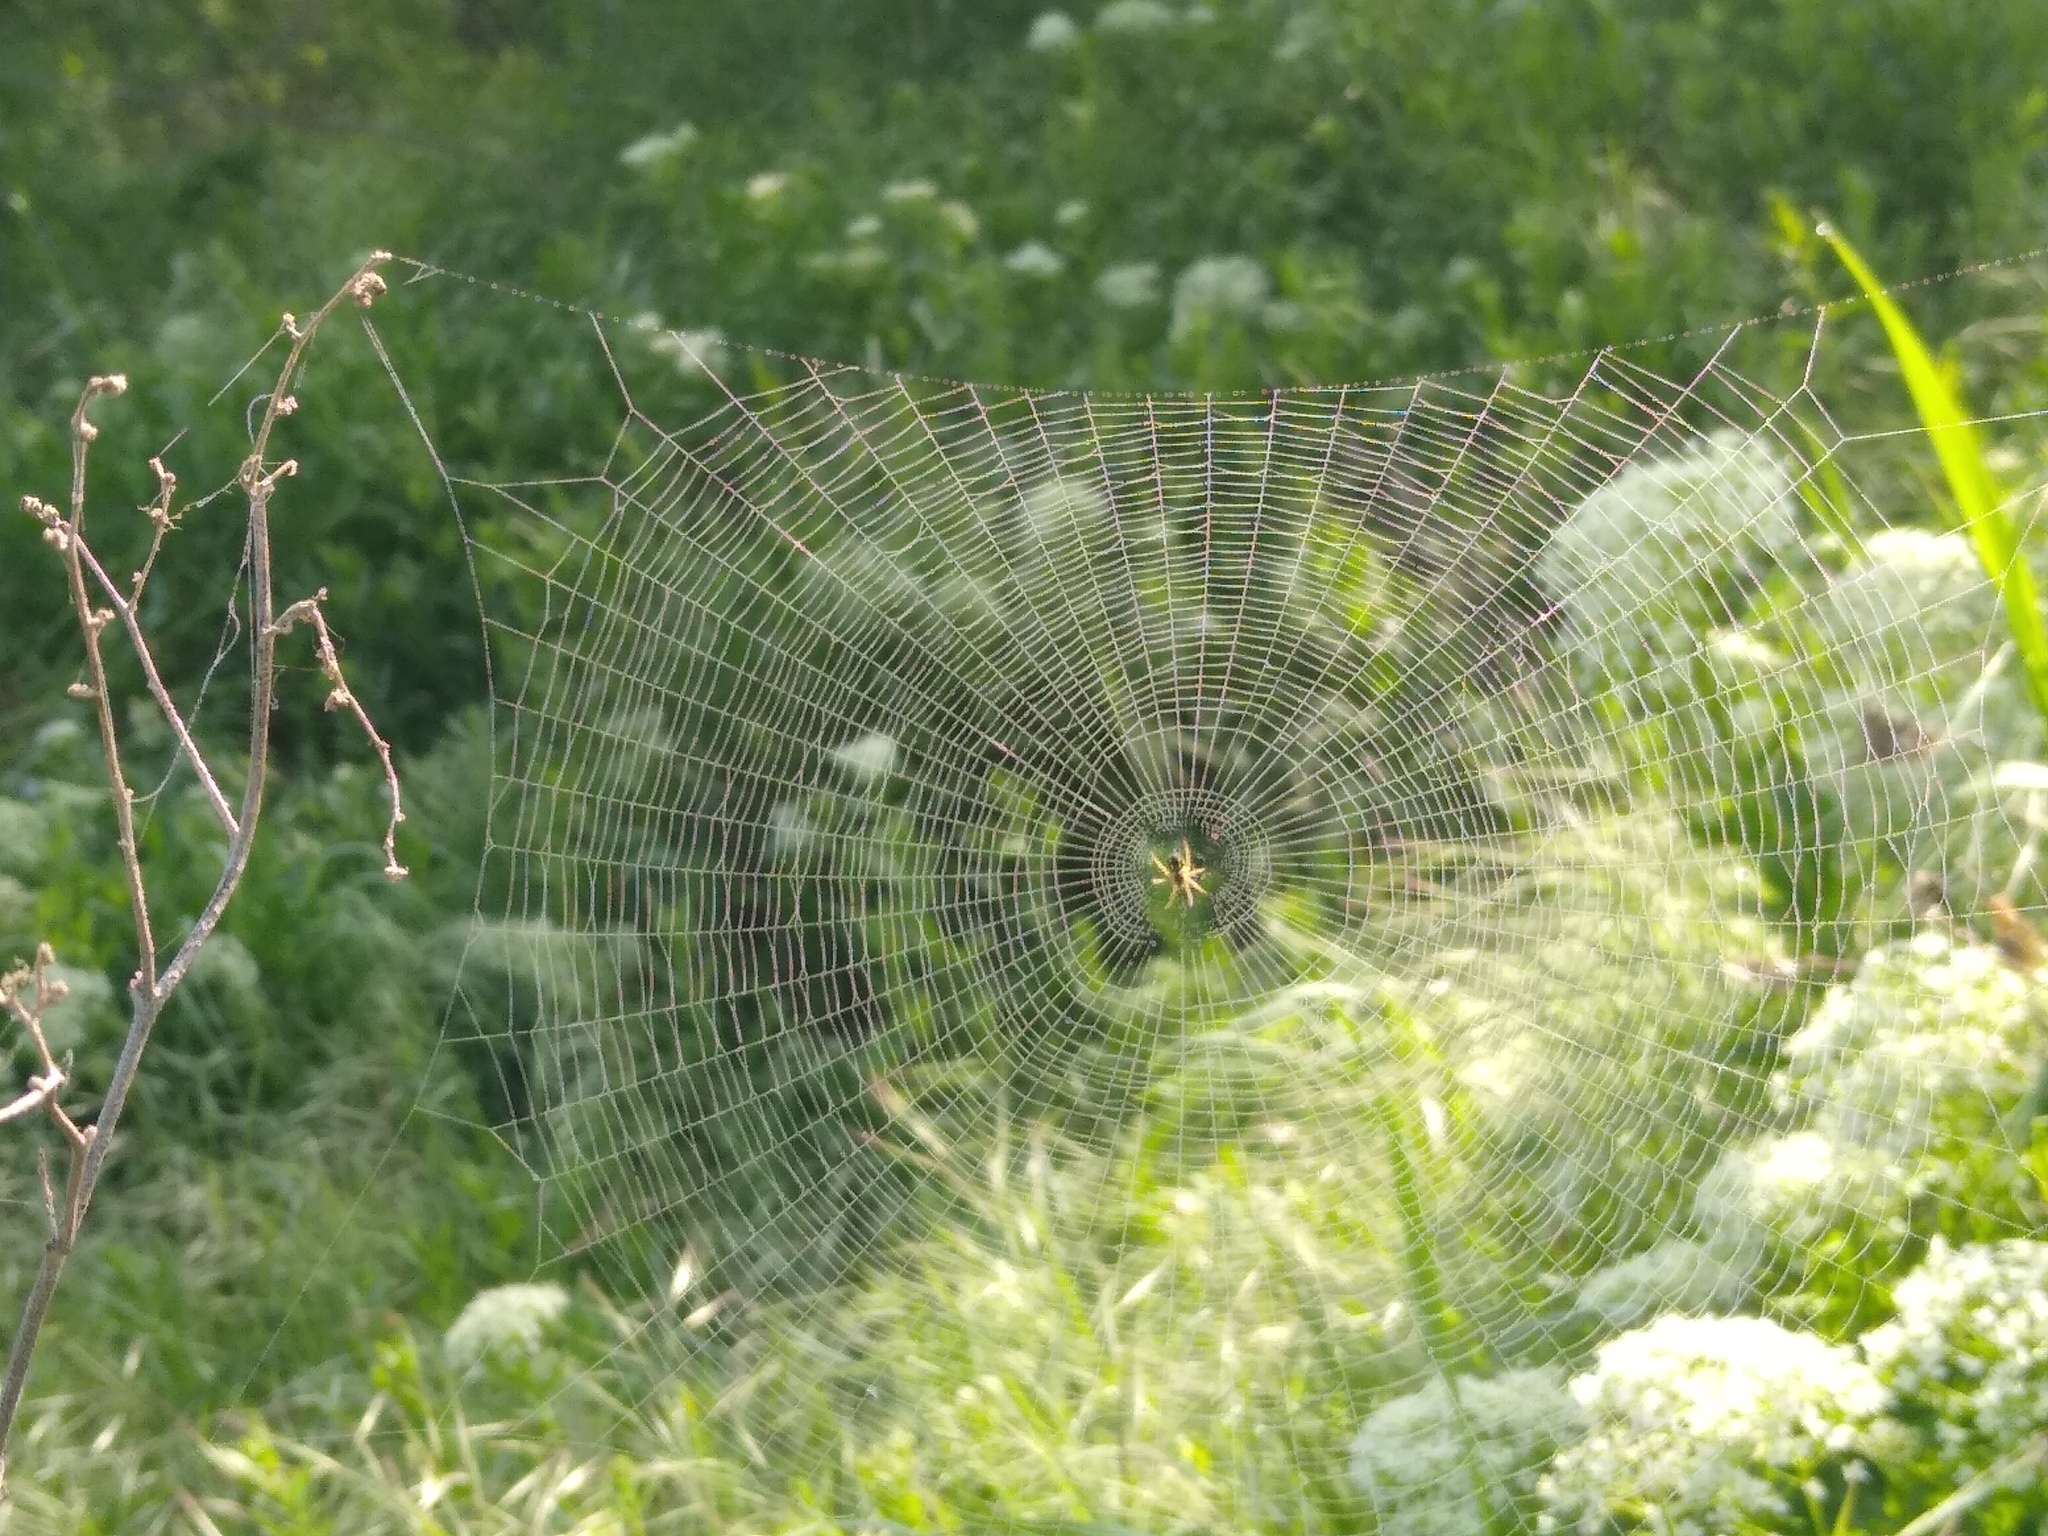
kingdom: Animalia
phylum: Arthropoda
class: Arachnida
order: Araneae
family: Araneidae
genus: Mangora
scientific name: Mangora acalypha
